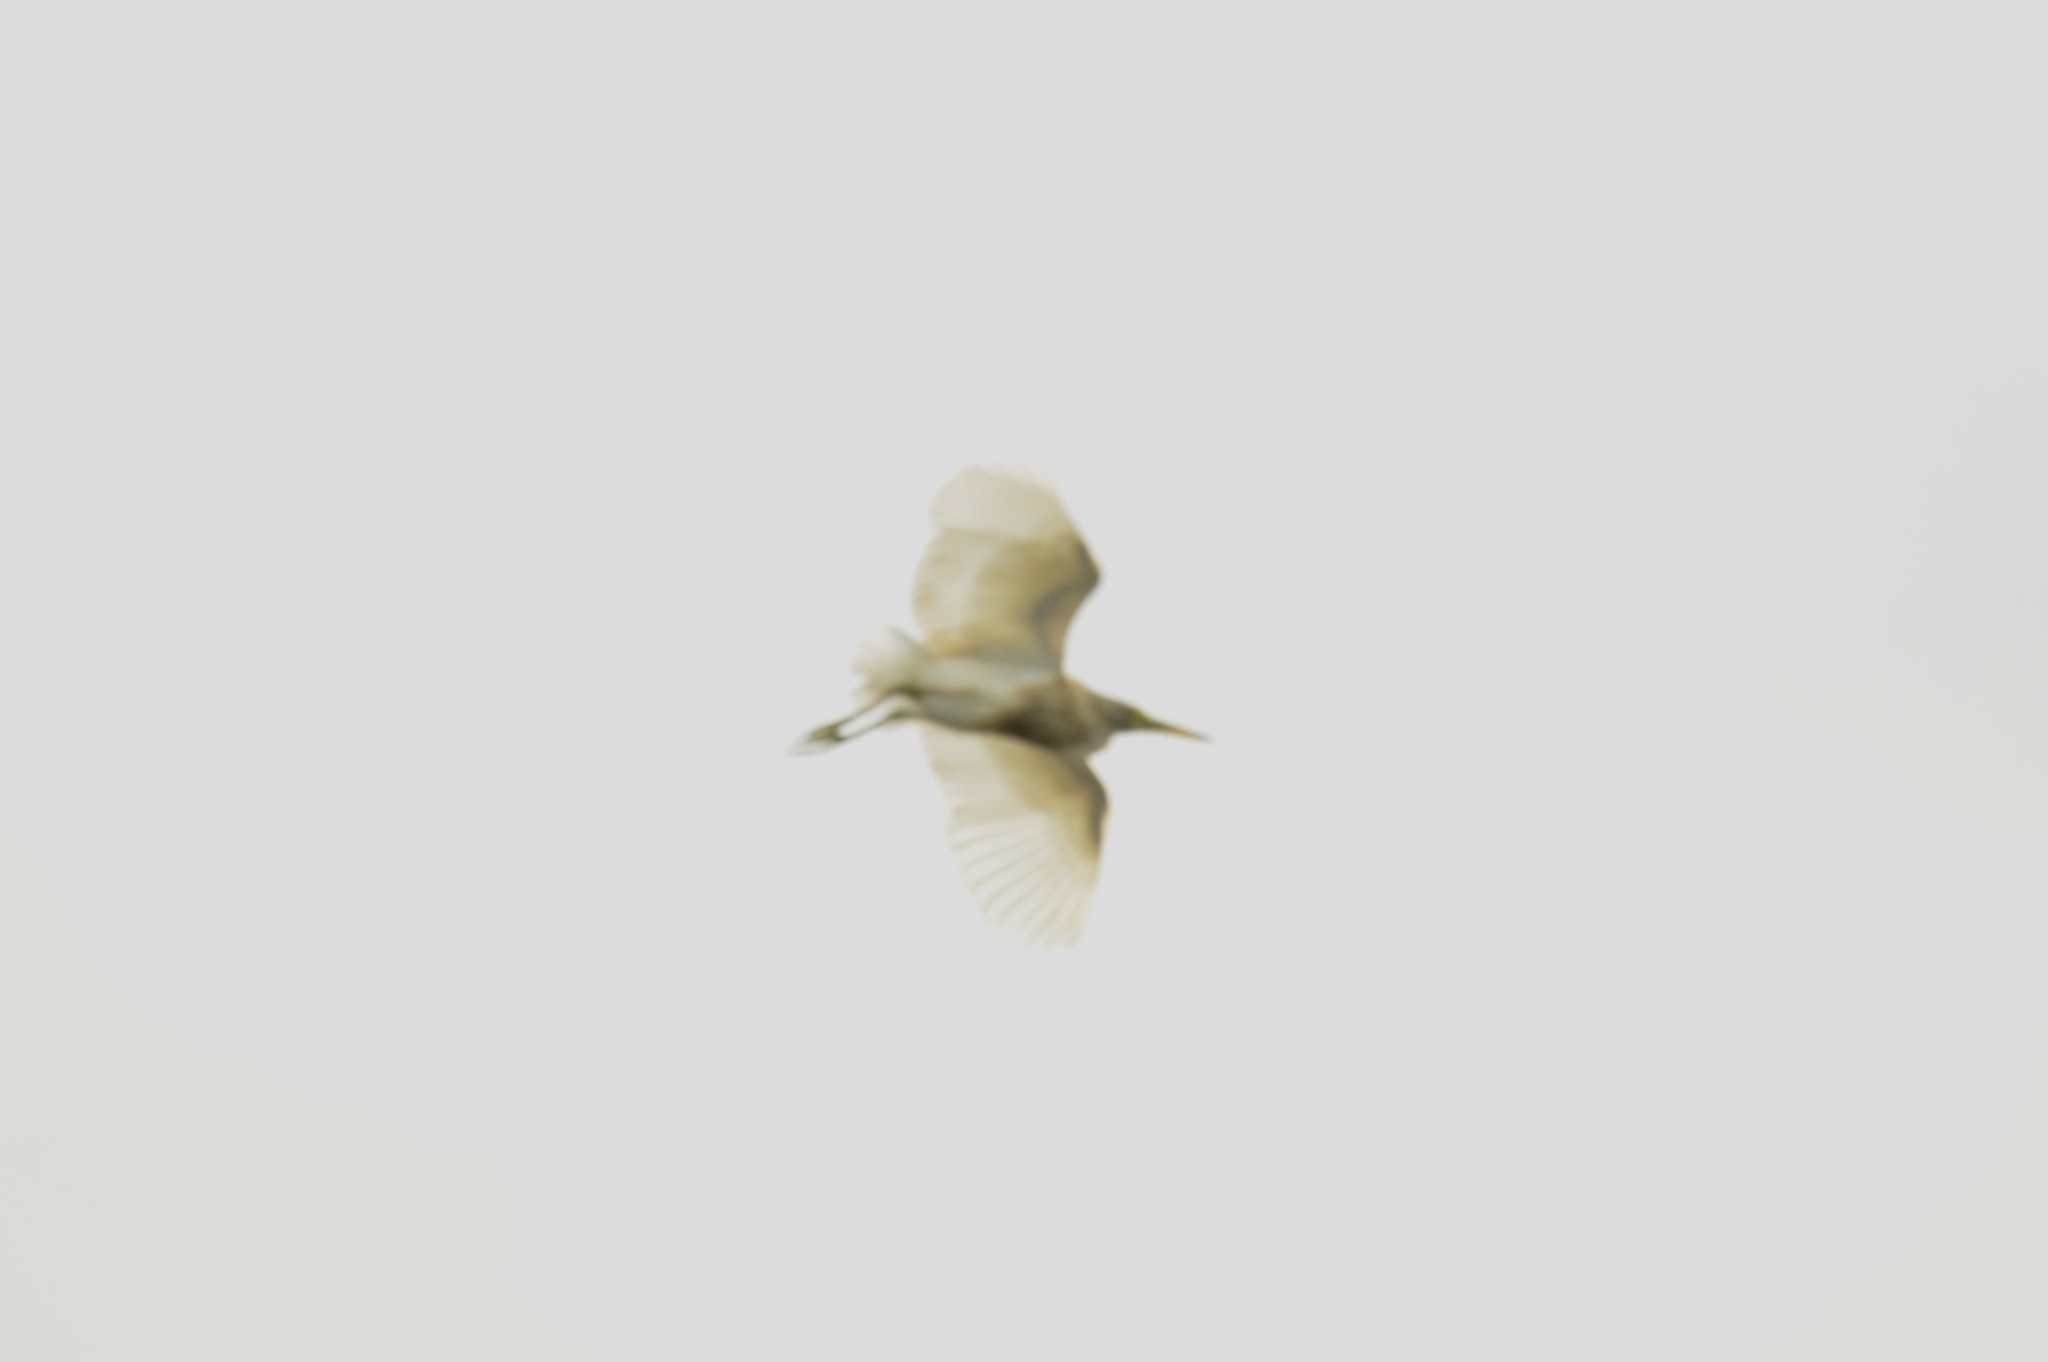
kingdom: Animalia
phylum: Chordata
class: Aves
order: Pelecaniformes
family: Ardeidae
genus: Ardeola
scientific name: Ardeola grayii
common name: Indian pond heron
